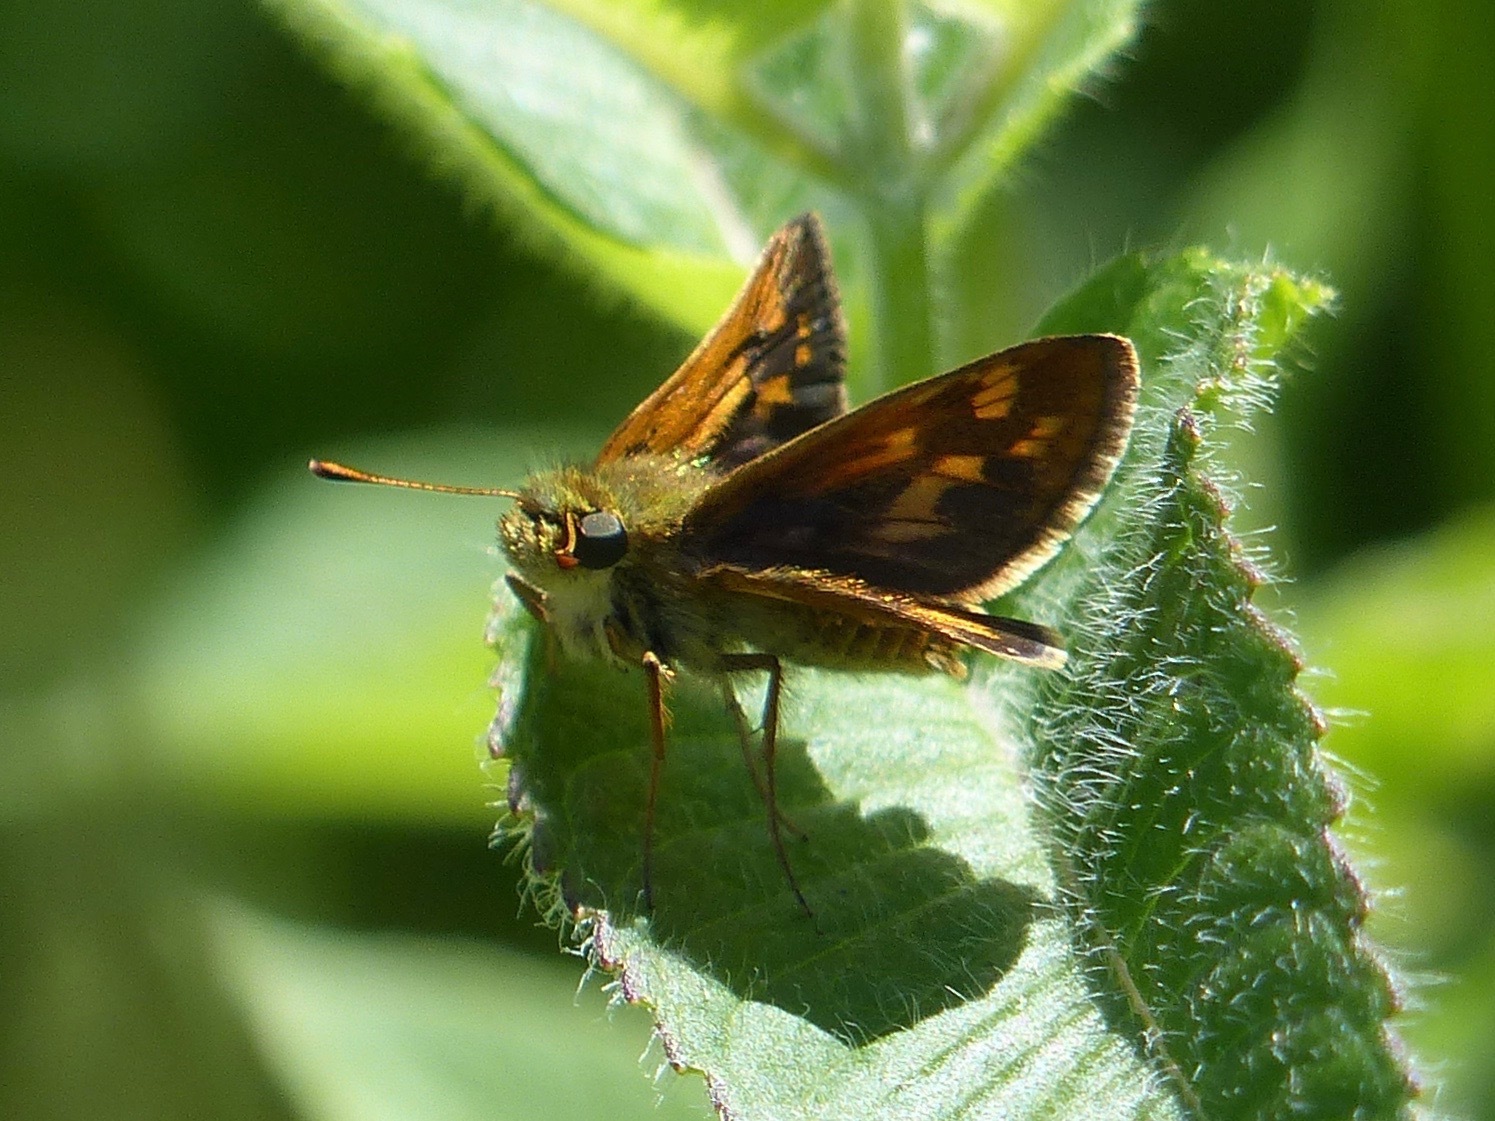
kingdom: Animalia
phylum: Arthropoda
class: Insecta
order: Lepidoptera
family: Hesperiidae
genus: Polites
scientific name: Polites coras
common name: Peck's skipper
